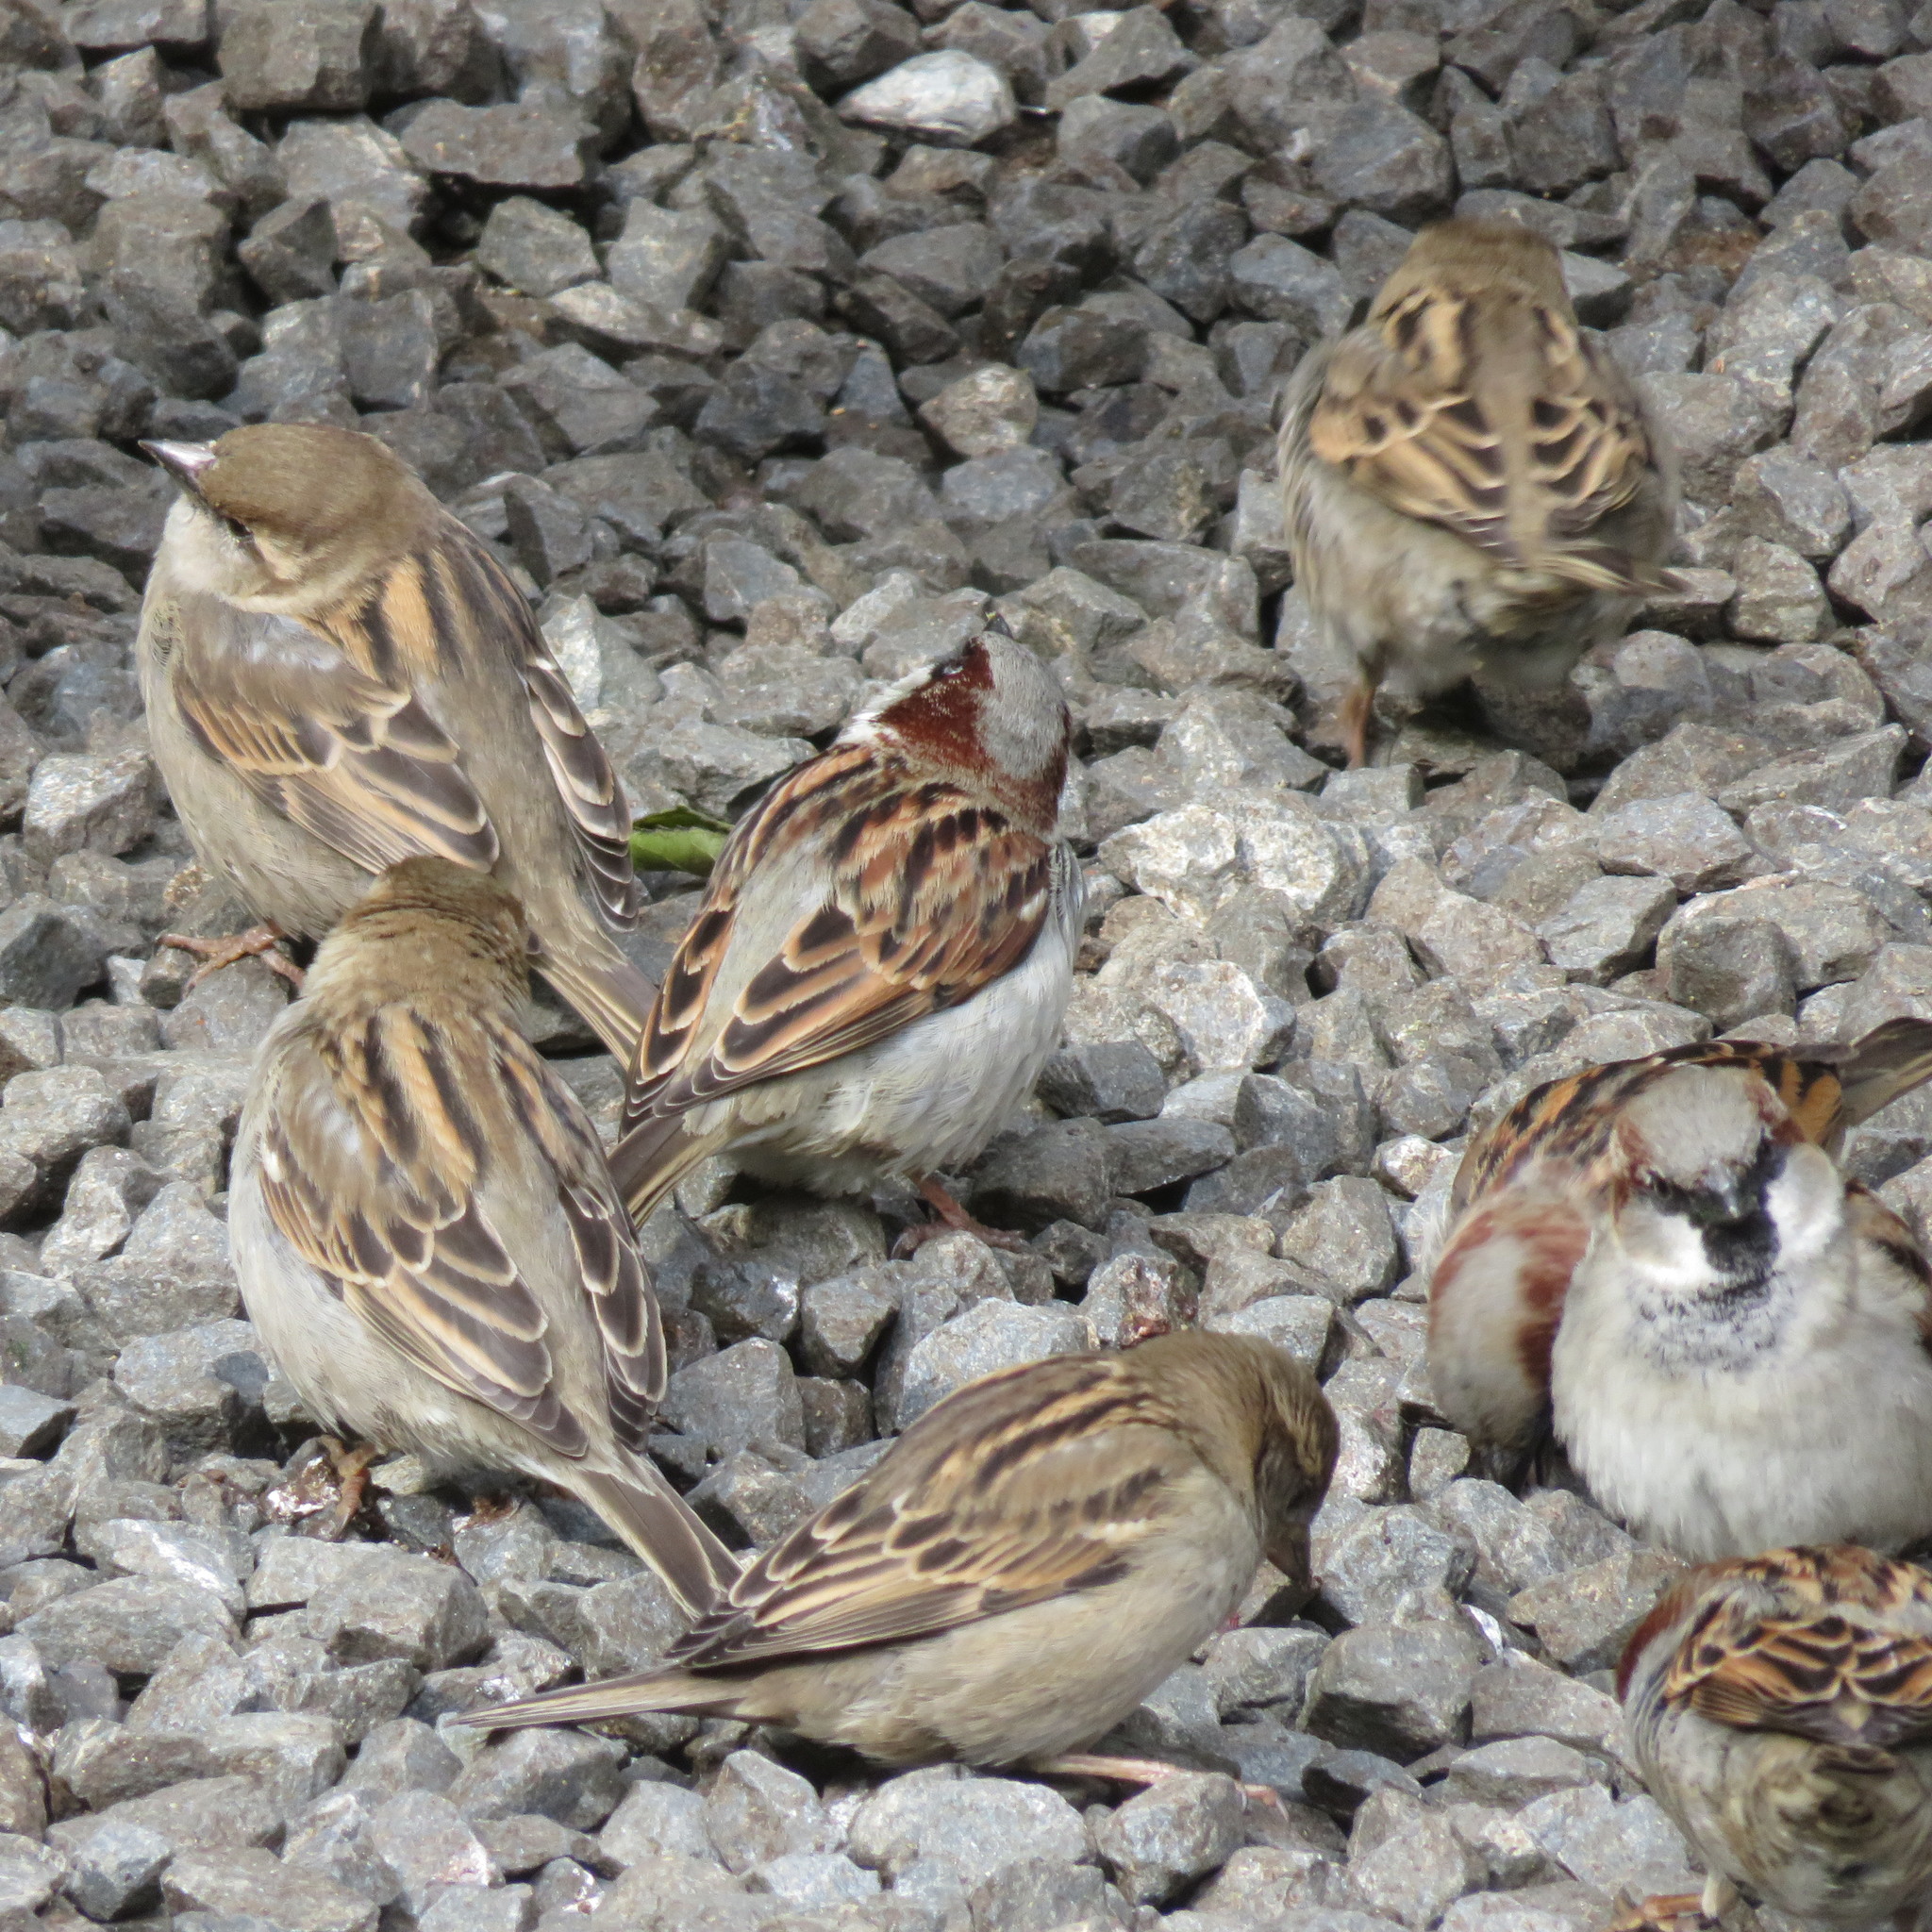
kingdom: Animalia
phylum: Chordata
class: Aves
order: Passeriformes
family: Passeridae
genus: Passer
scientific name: Passer domesticus
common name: House sparrow
